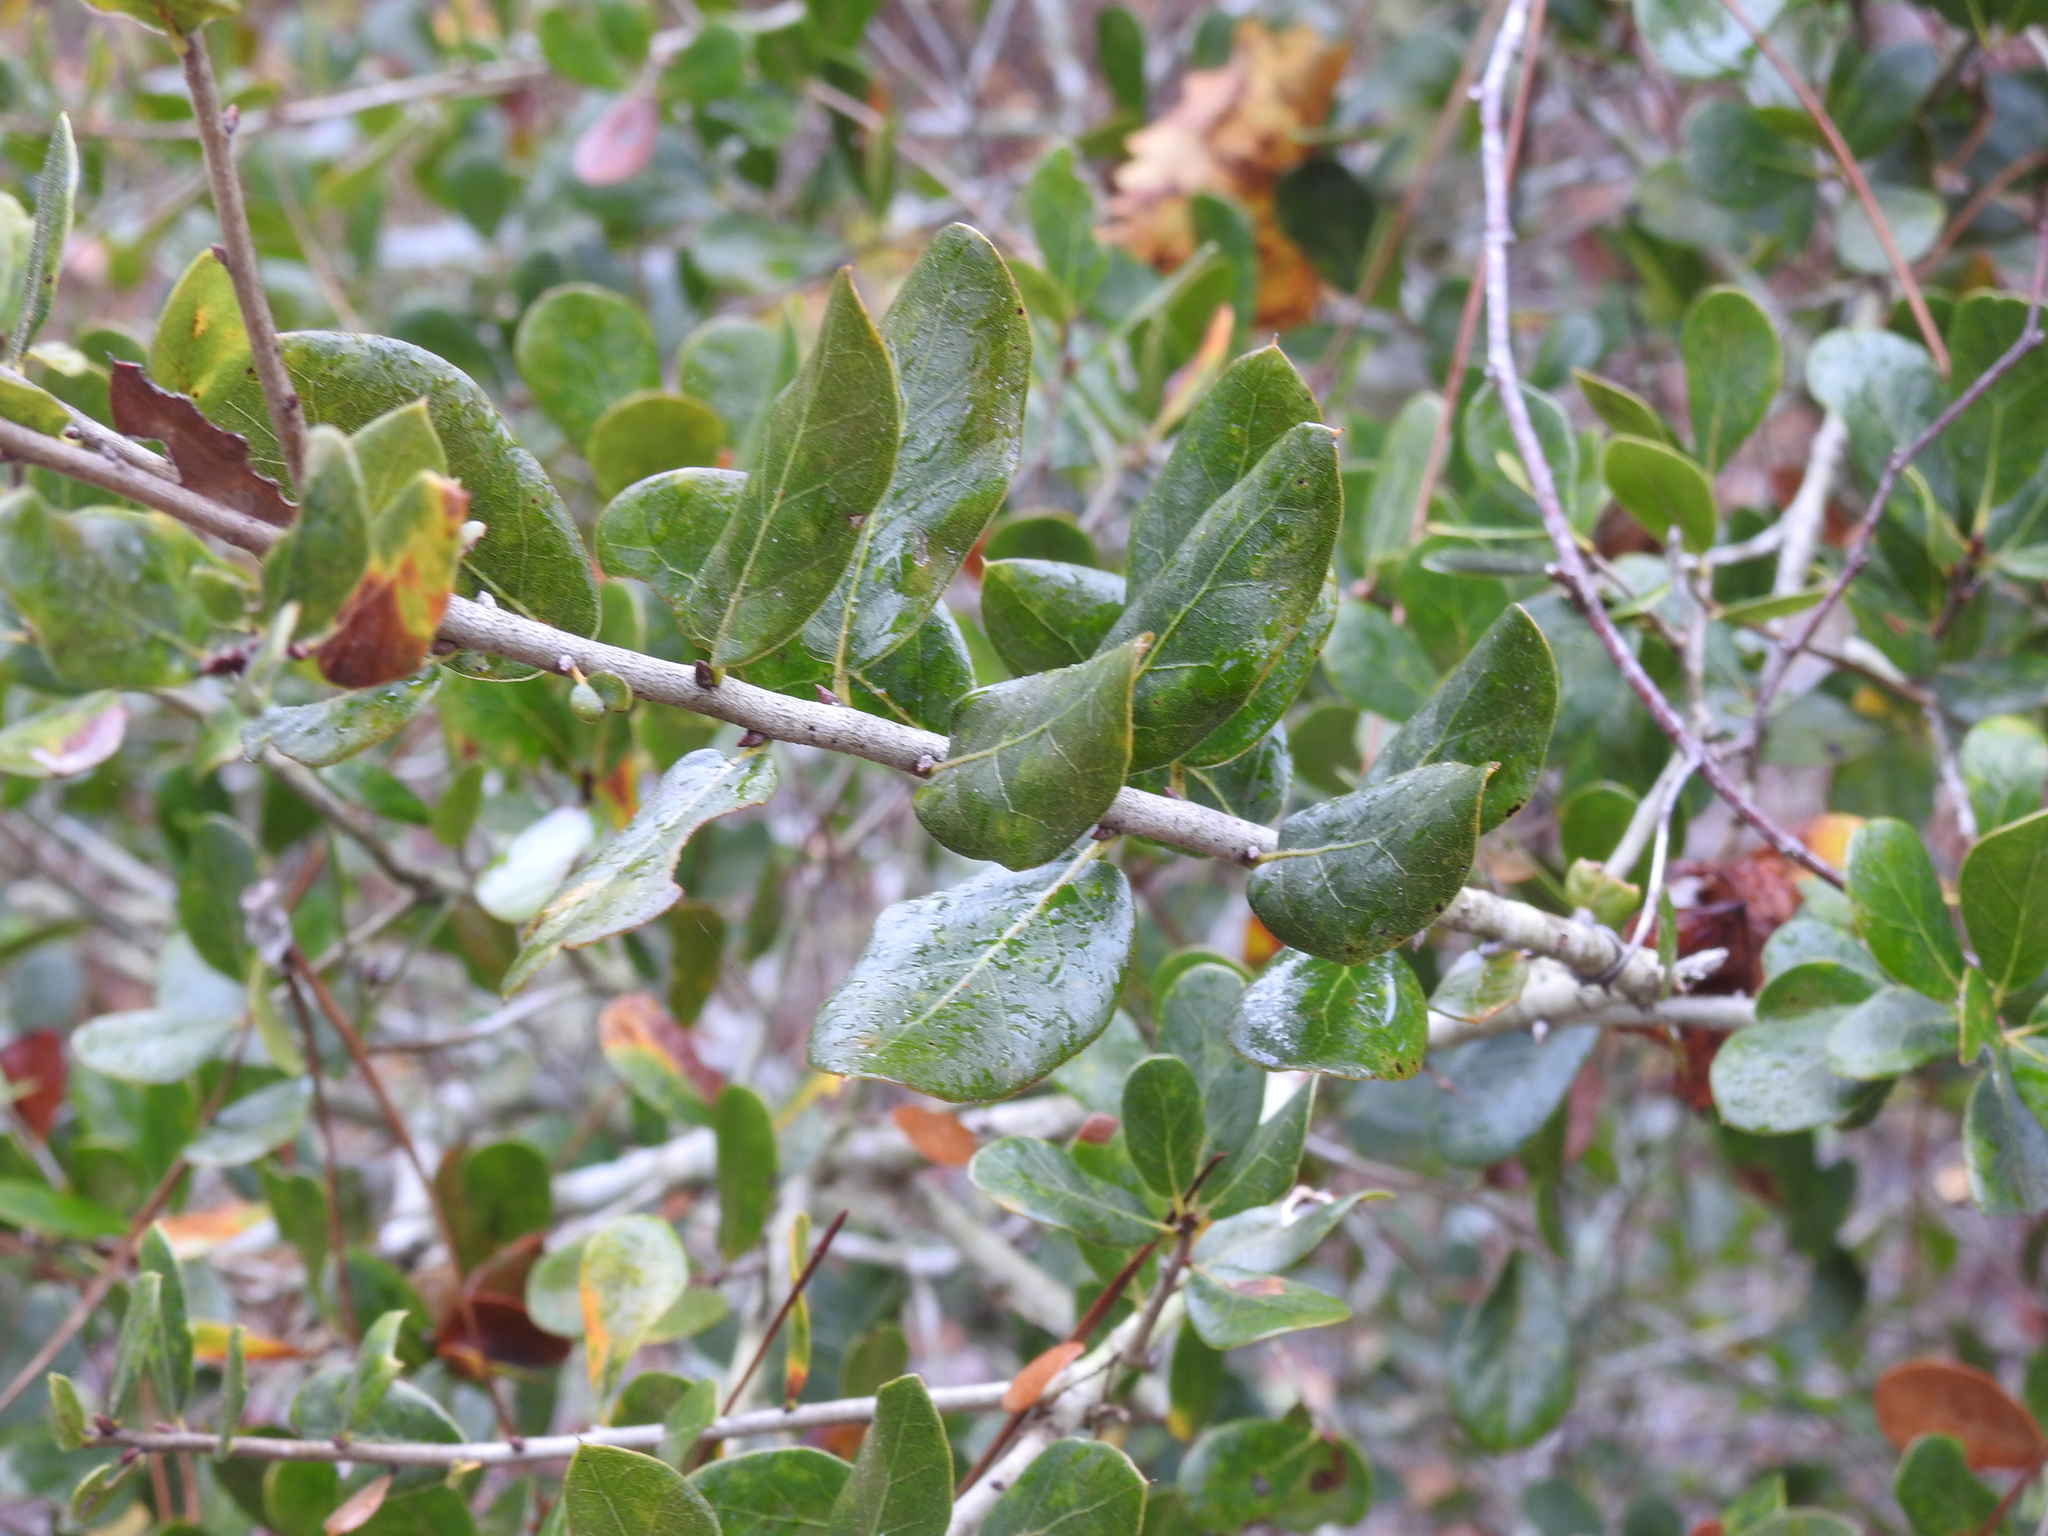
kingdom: Plantae
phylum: Tracheophyta
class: Magnoliopsida
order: Fagales
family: Fagaceae
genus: Quercus
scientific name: Quercus myrtifolia
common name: Myrtle oak
